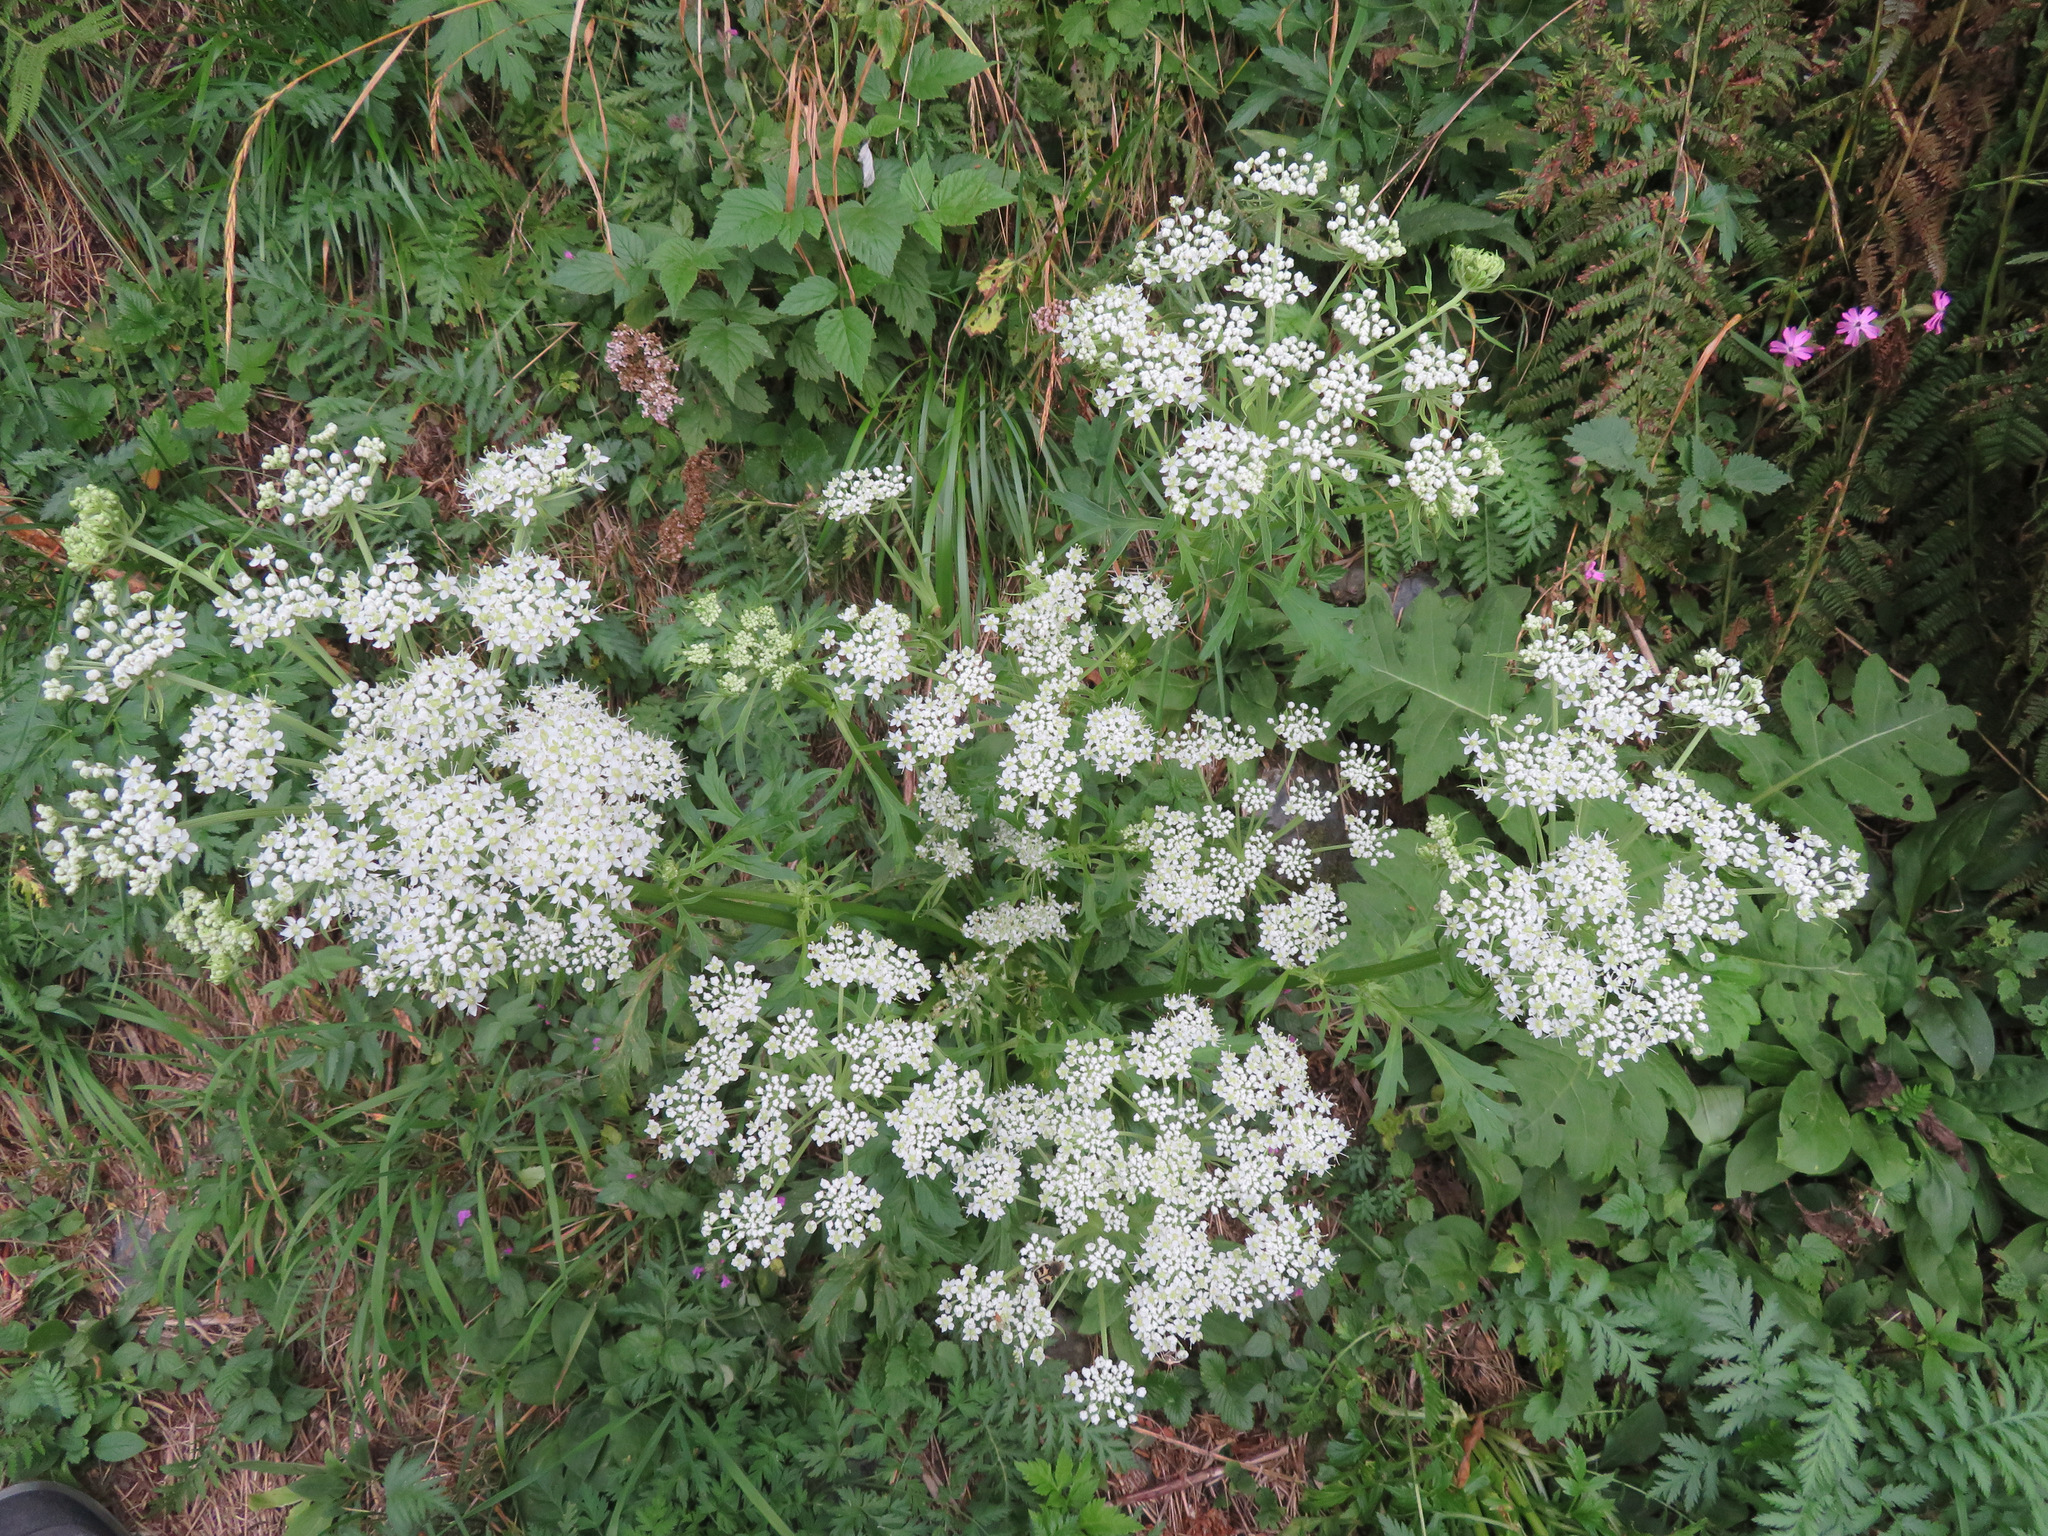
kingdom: Plantae
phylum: Tracheophyta
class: Magnoliopsida
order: Apiales
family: Apiaceae
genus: Pleurospermum
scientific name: Pleurospermum austriacum
